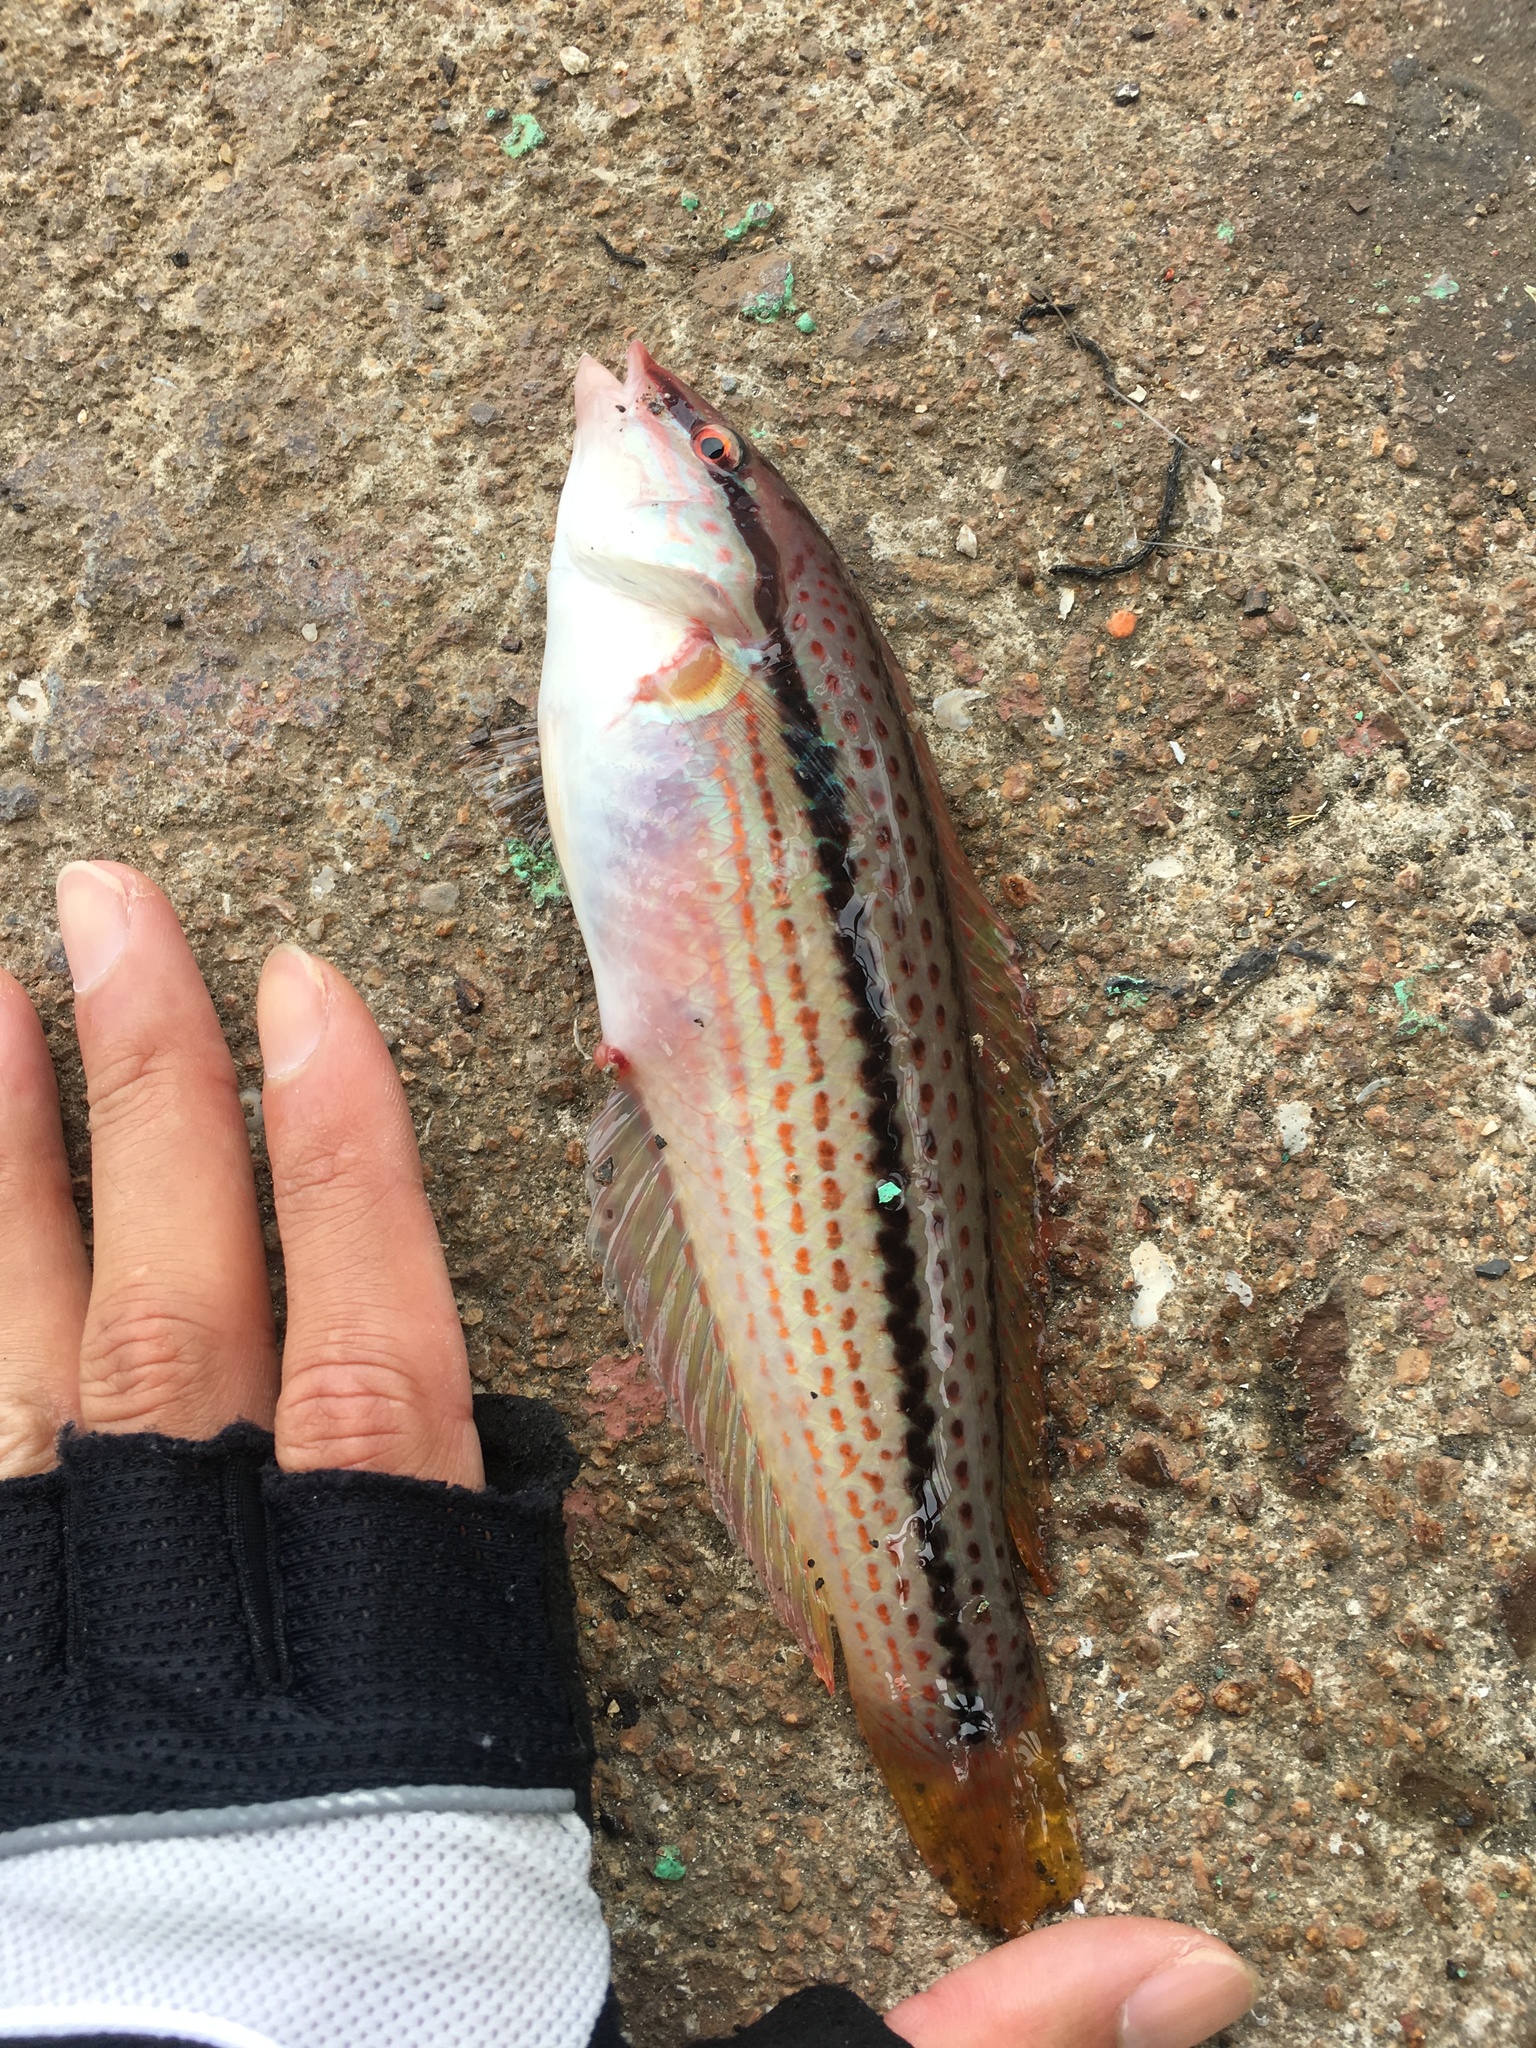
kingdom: Animalia
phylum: Chordata
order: Perciformes
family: Labridae
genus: Parajulis
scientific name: Parajulis poecilepterus
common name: Multicolorfin rainbowfish
